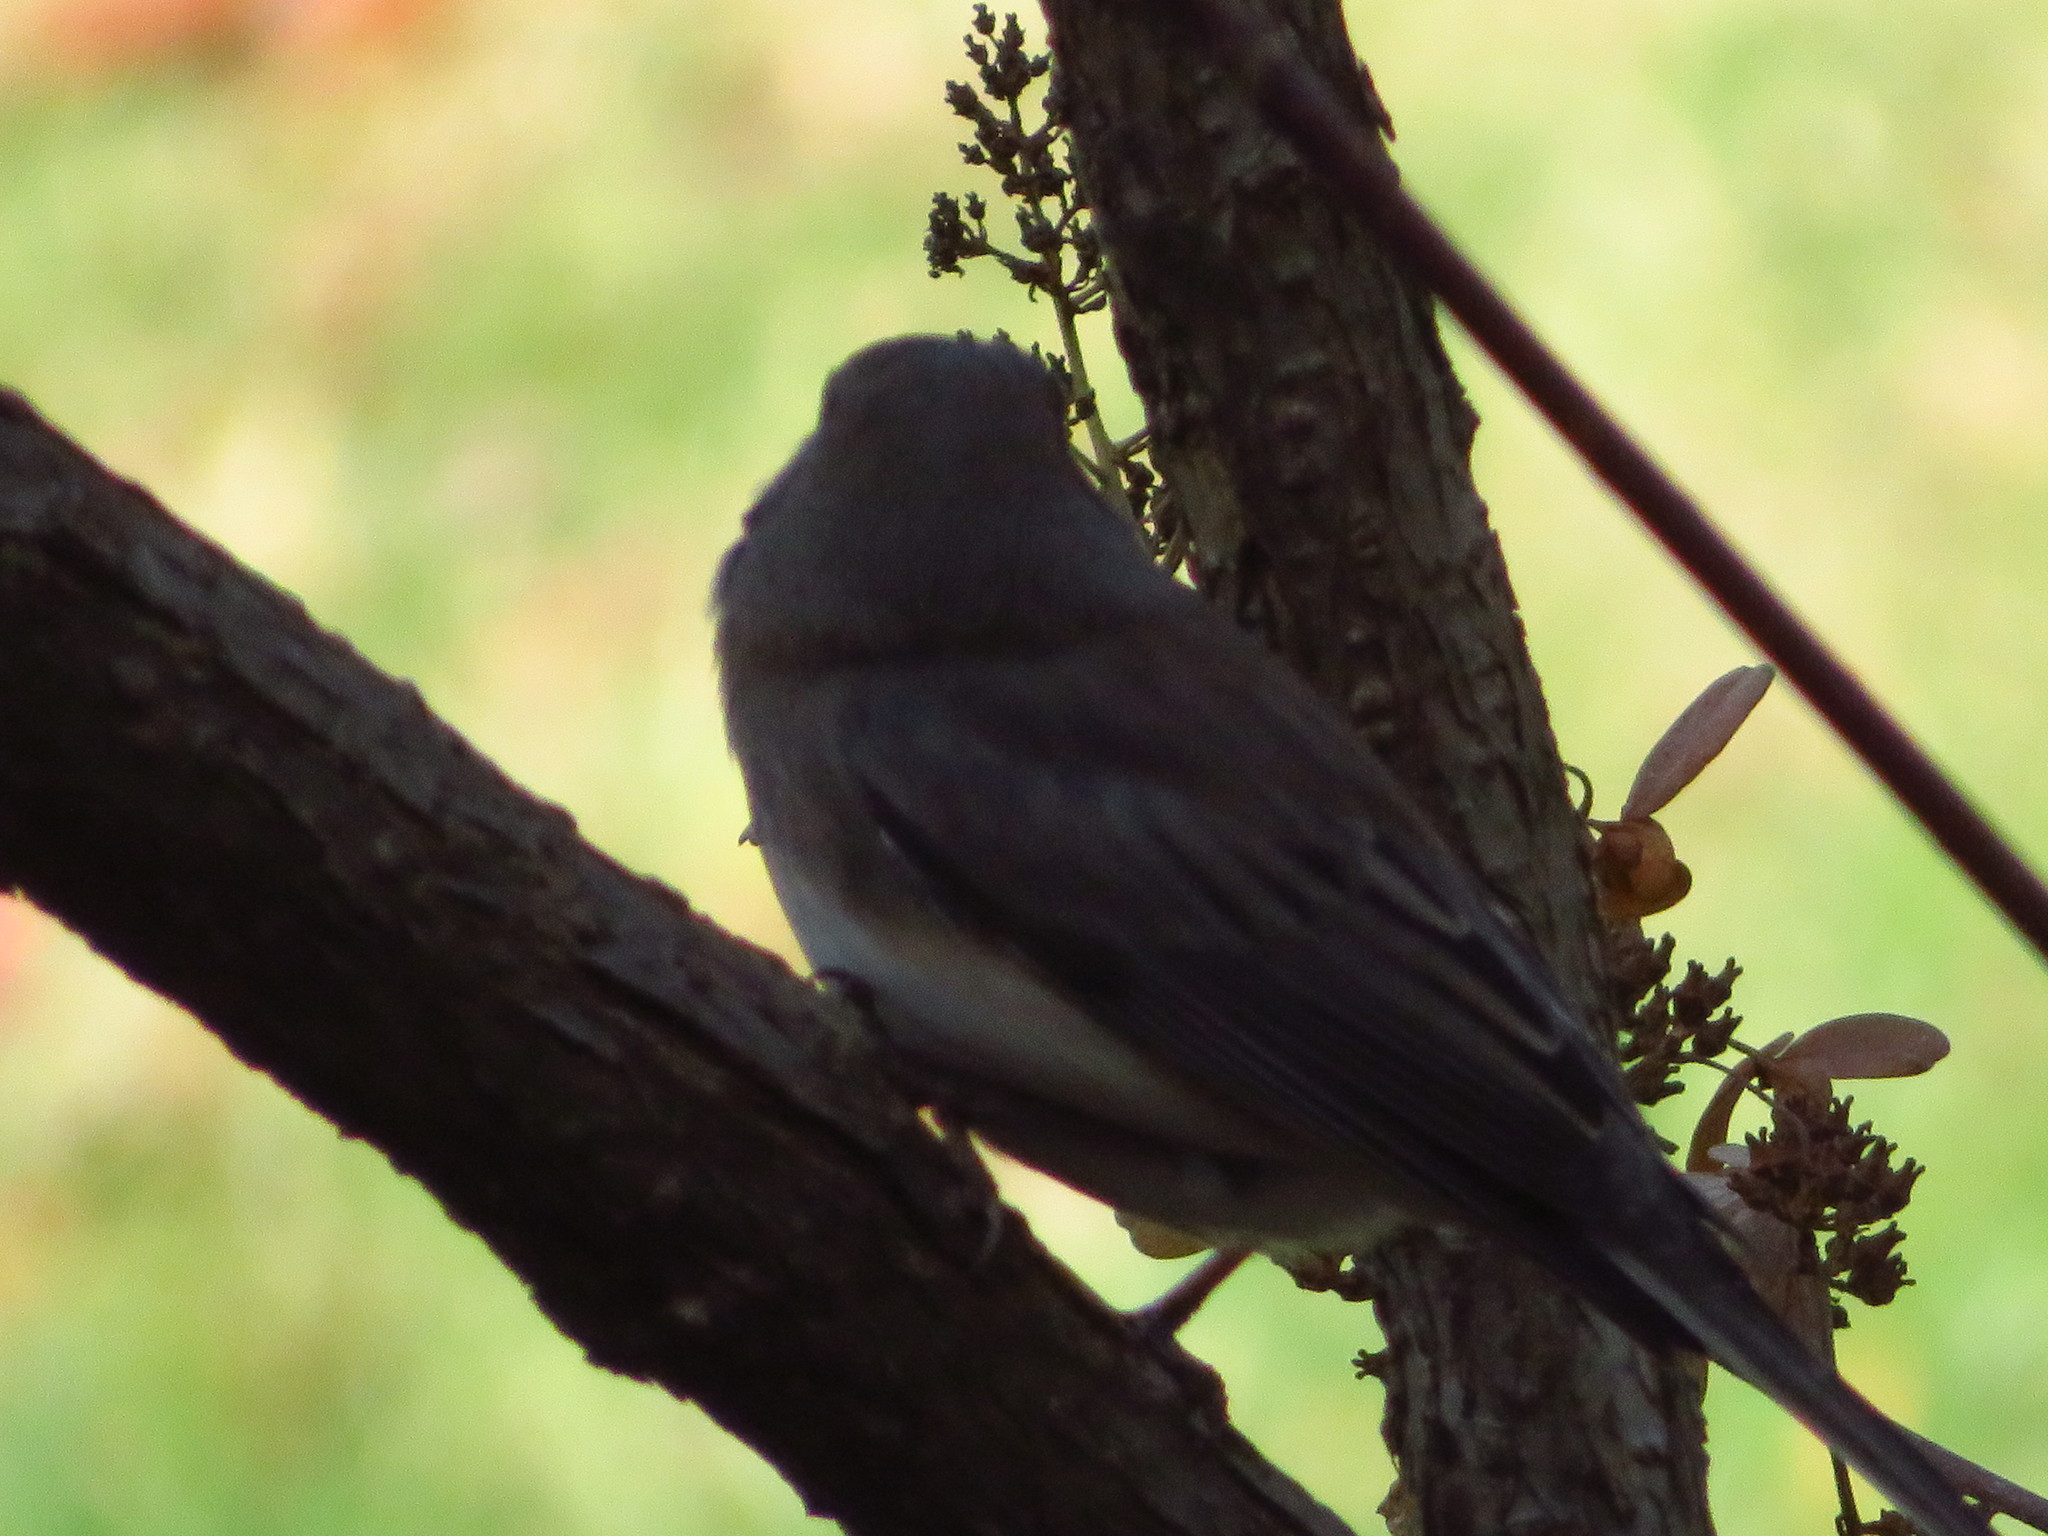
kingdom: Animalia
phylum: Chordata
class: Aves
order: Passeriformes
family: Passerellidae
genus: Junco
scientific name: Junco hyemalis
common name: Dark-eyed junco
